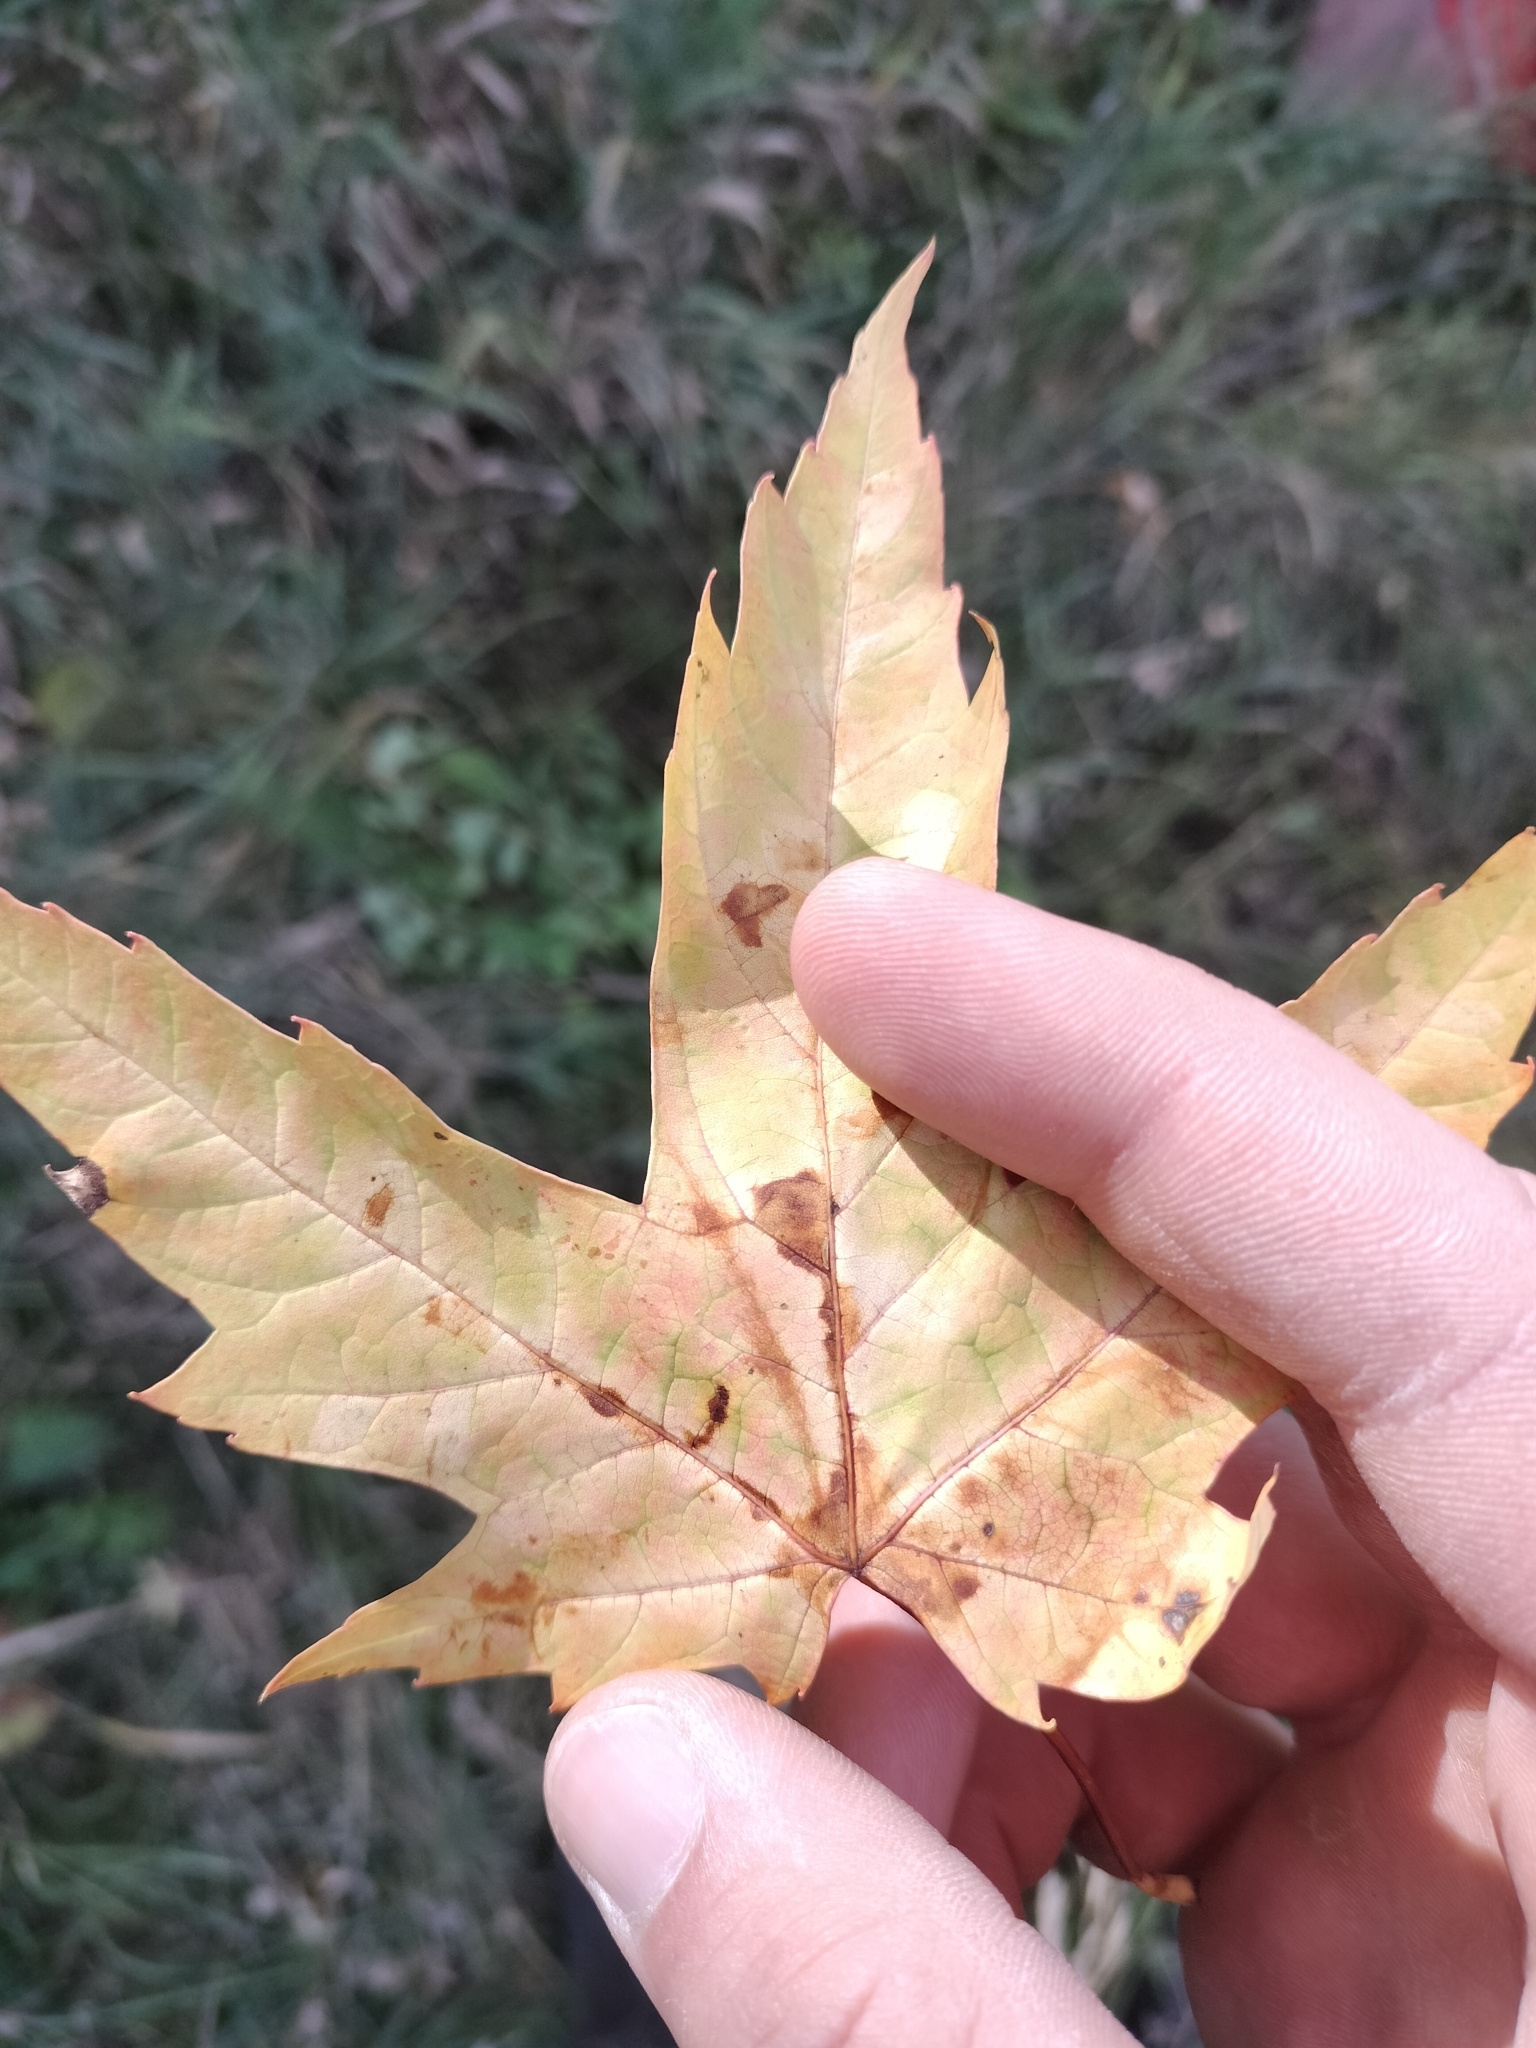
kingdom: Plantae
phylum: Tracheophyta
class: Magnoliopsida
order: Sapindales
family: Sapindaceae
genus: Acer
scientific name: Acer saccharinum
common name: Silver maple
